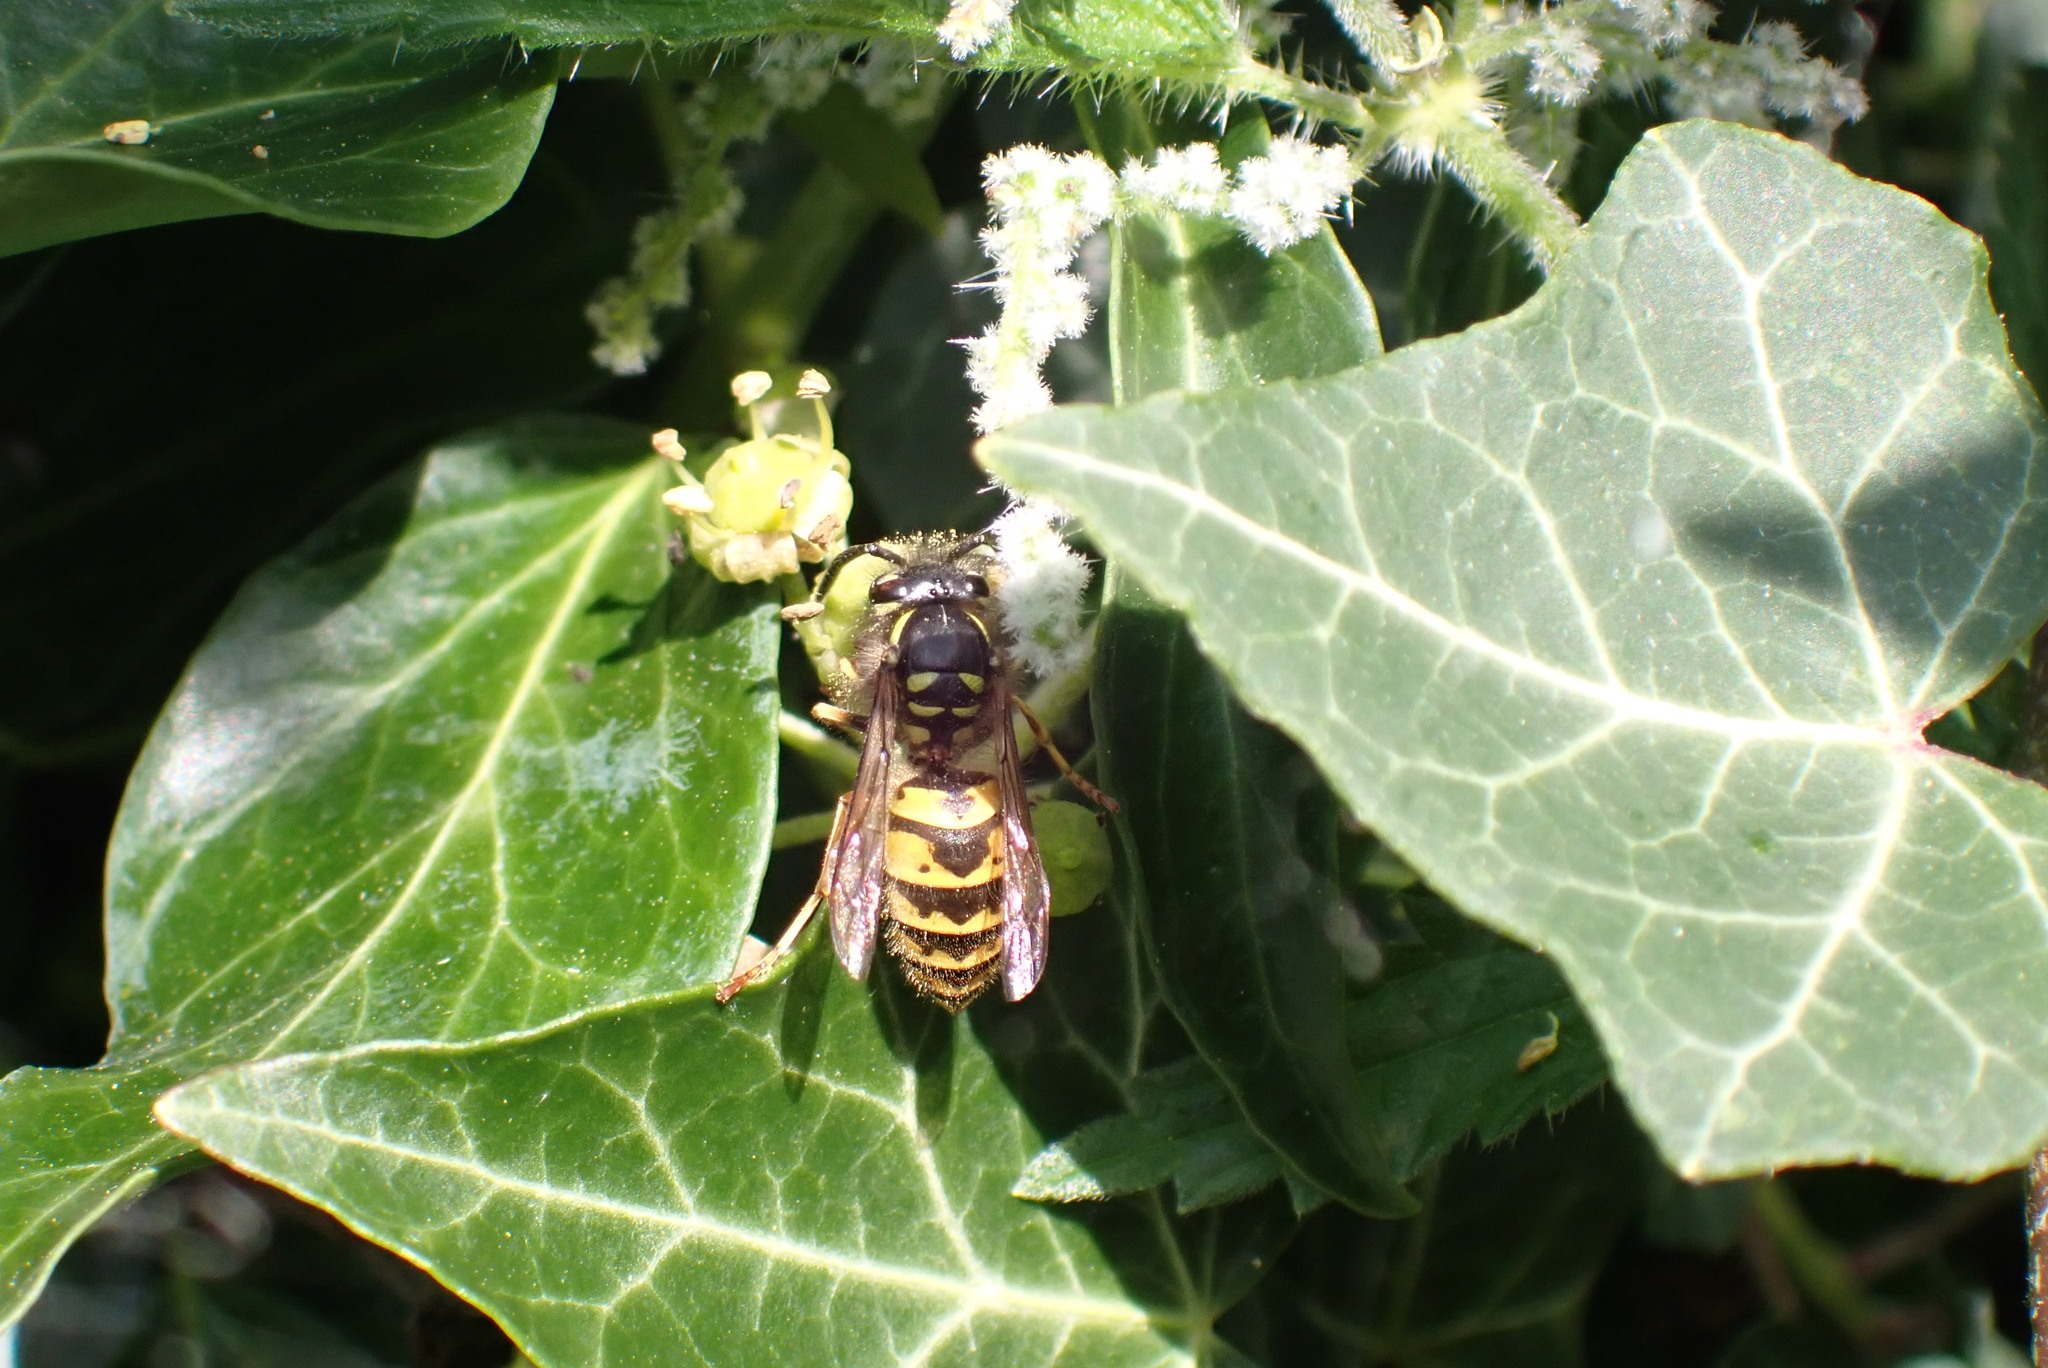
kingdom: Animalia
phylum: Arthropoda
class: Insecta
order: Hymenoptera
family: Vespidae
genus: Vespula
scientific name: Vespula vulgaris
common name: Common wasp
